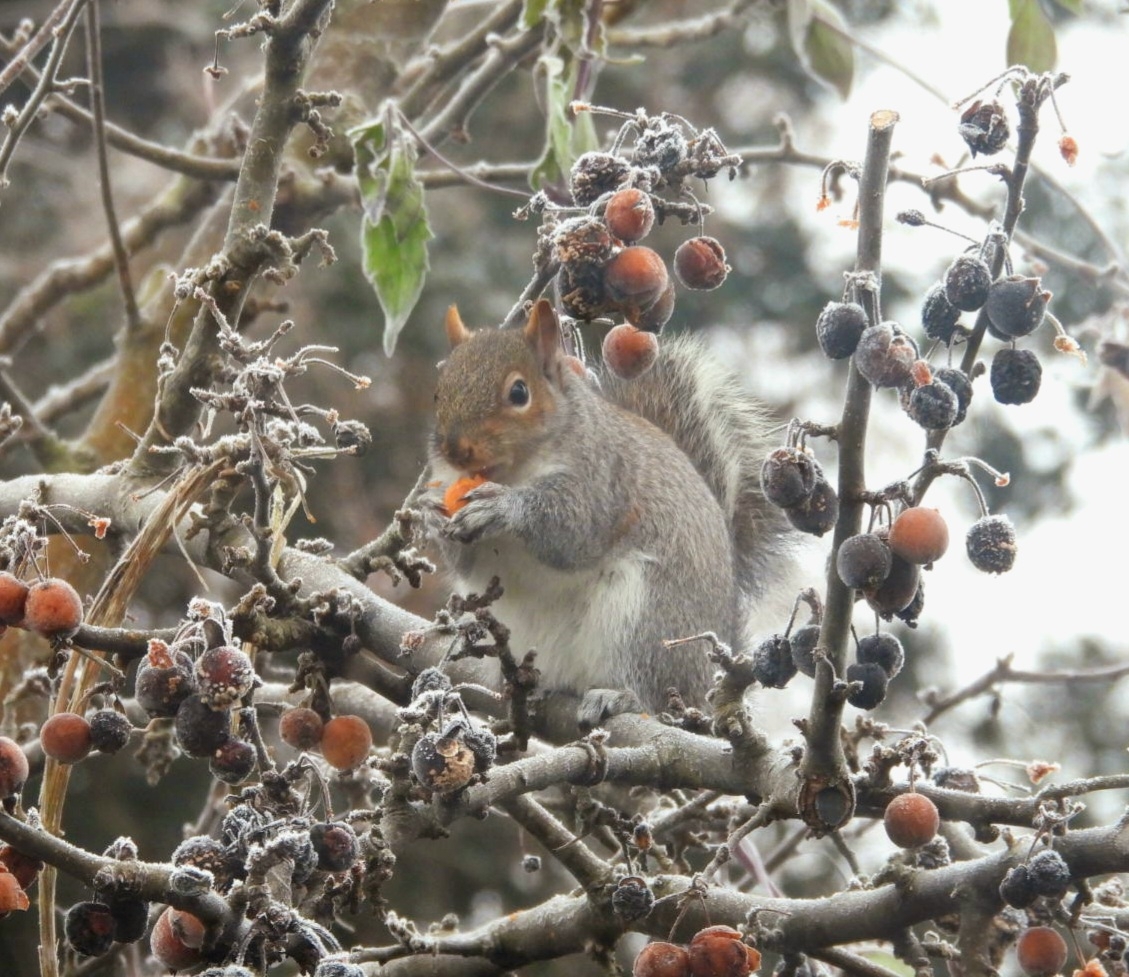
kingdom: Animalia
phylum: Chordata
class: Mammalia
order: Rodentia
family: Sciuridae
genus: Sciurus
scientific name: Sciurus carolinensis
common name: Eastern gray squirrel
